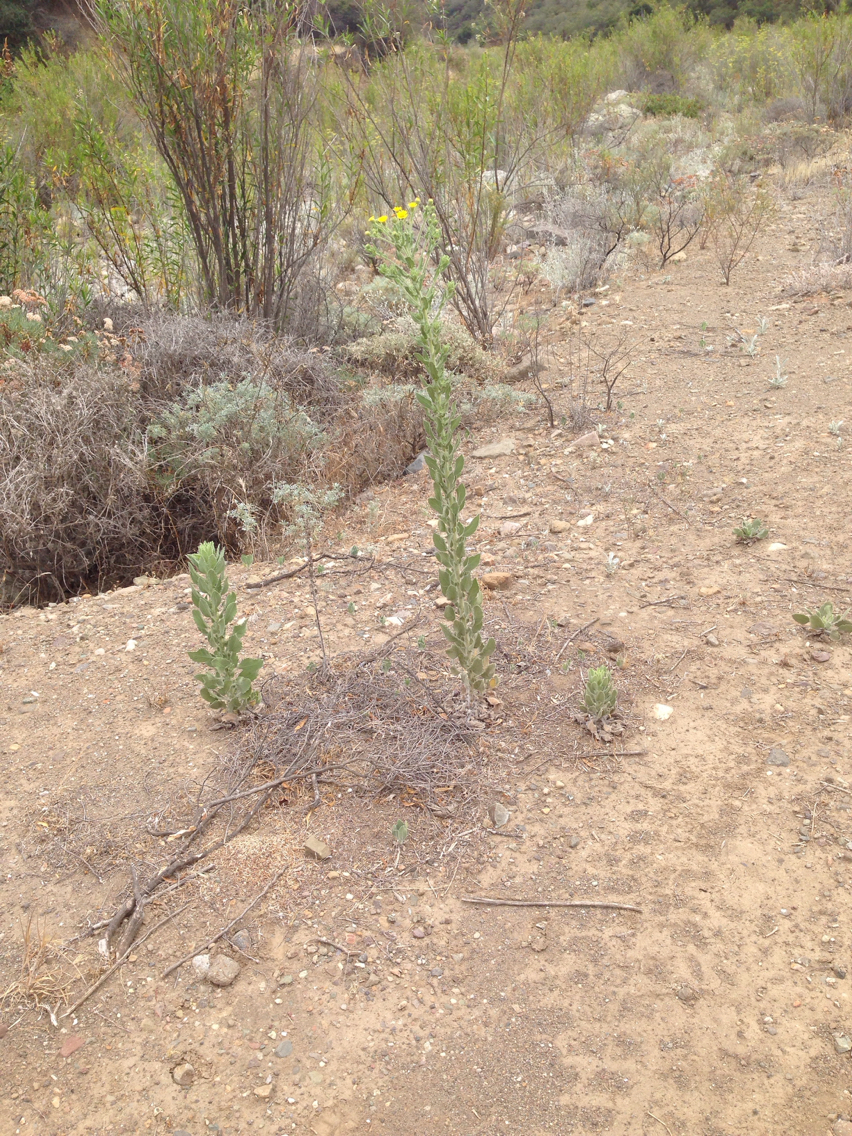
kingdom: Plantae
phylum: Tracheophyta
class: Magnoliopsida
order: Asterales
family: Asteraceae
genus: Heterotheca
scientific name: Heterotheca grandiflora
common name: Telegraphweed
